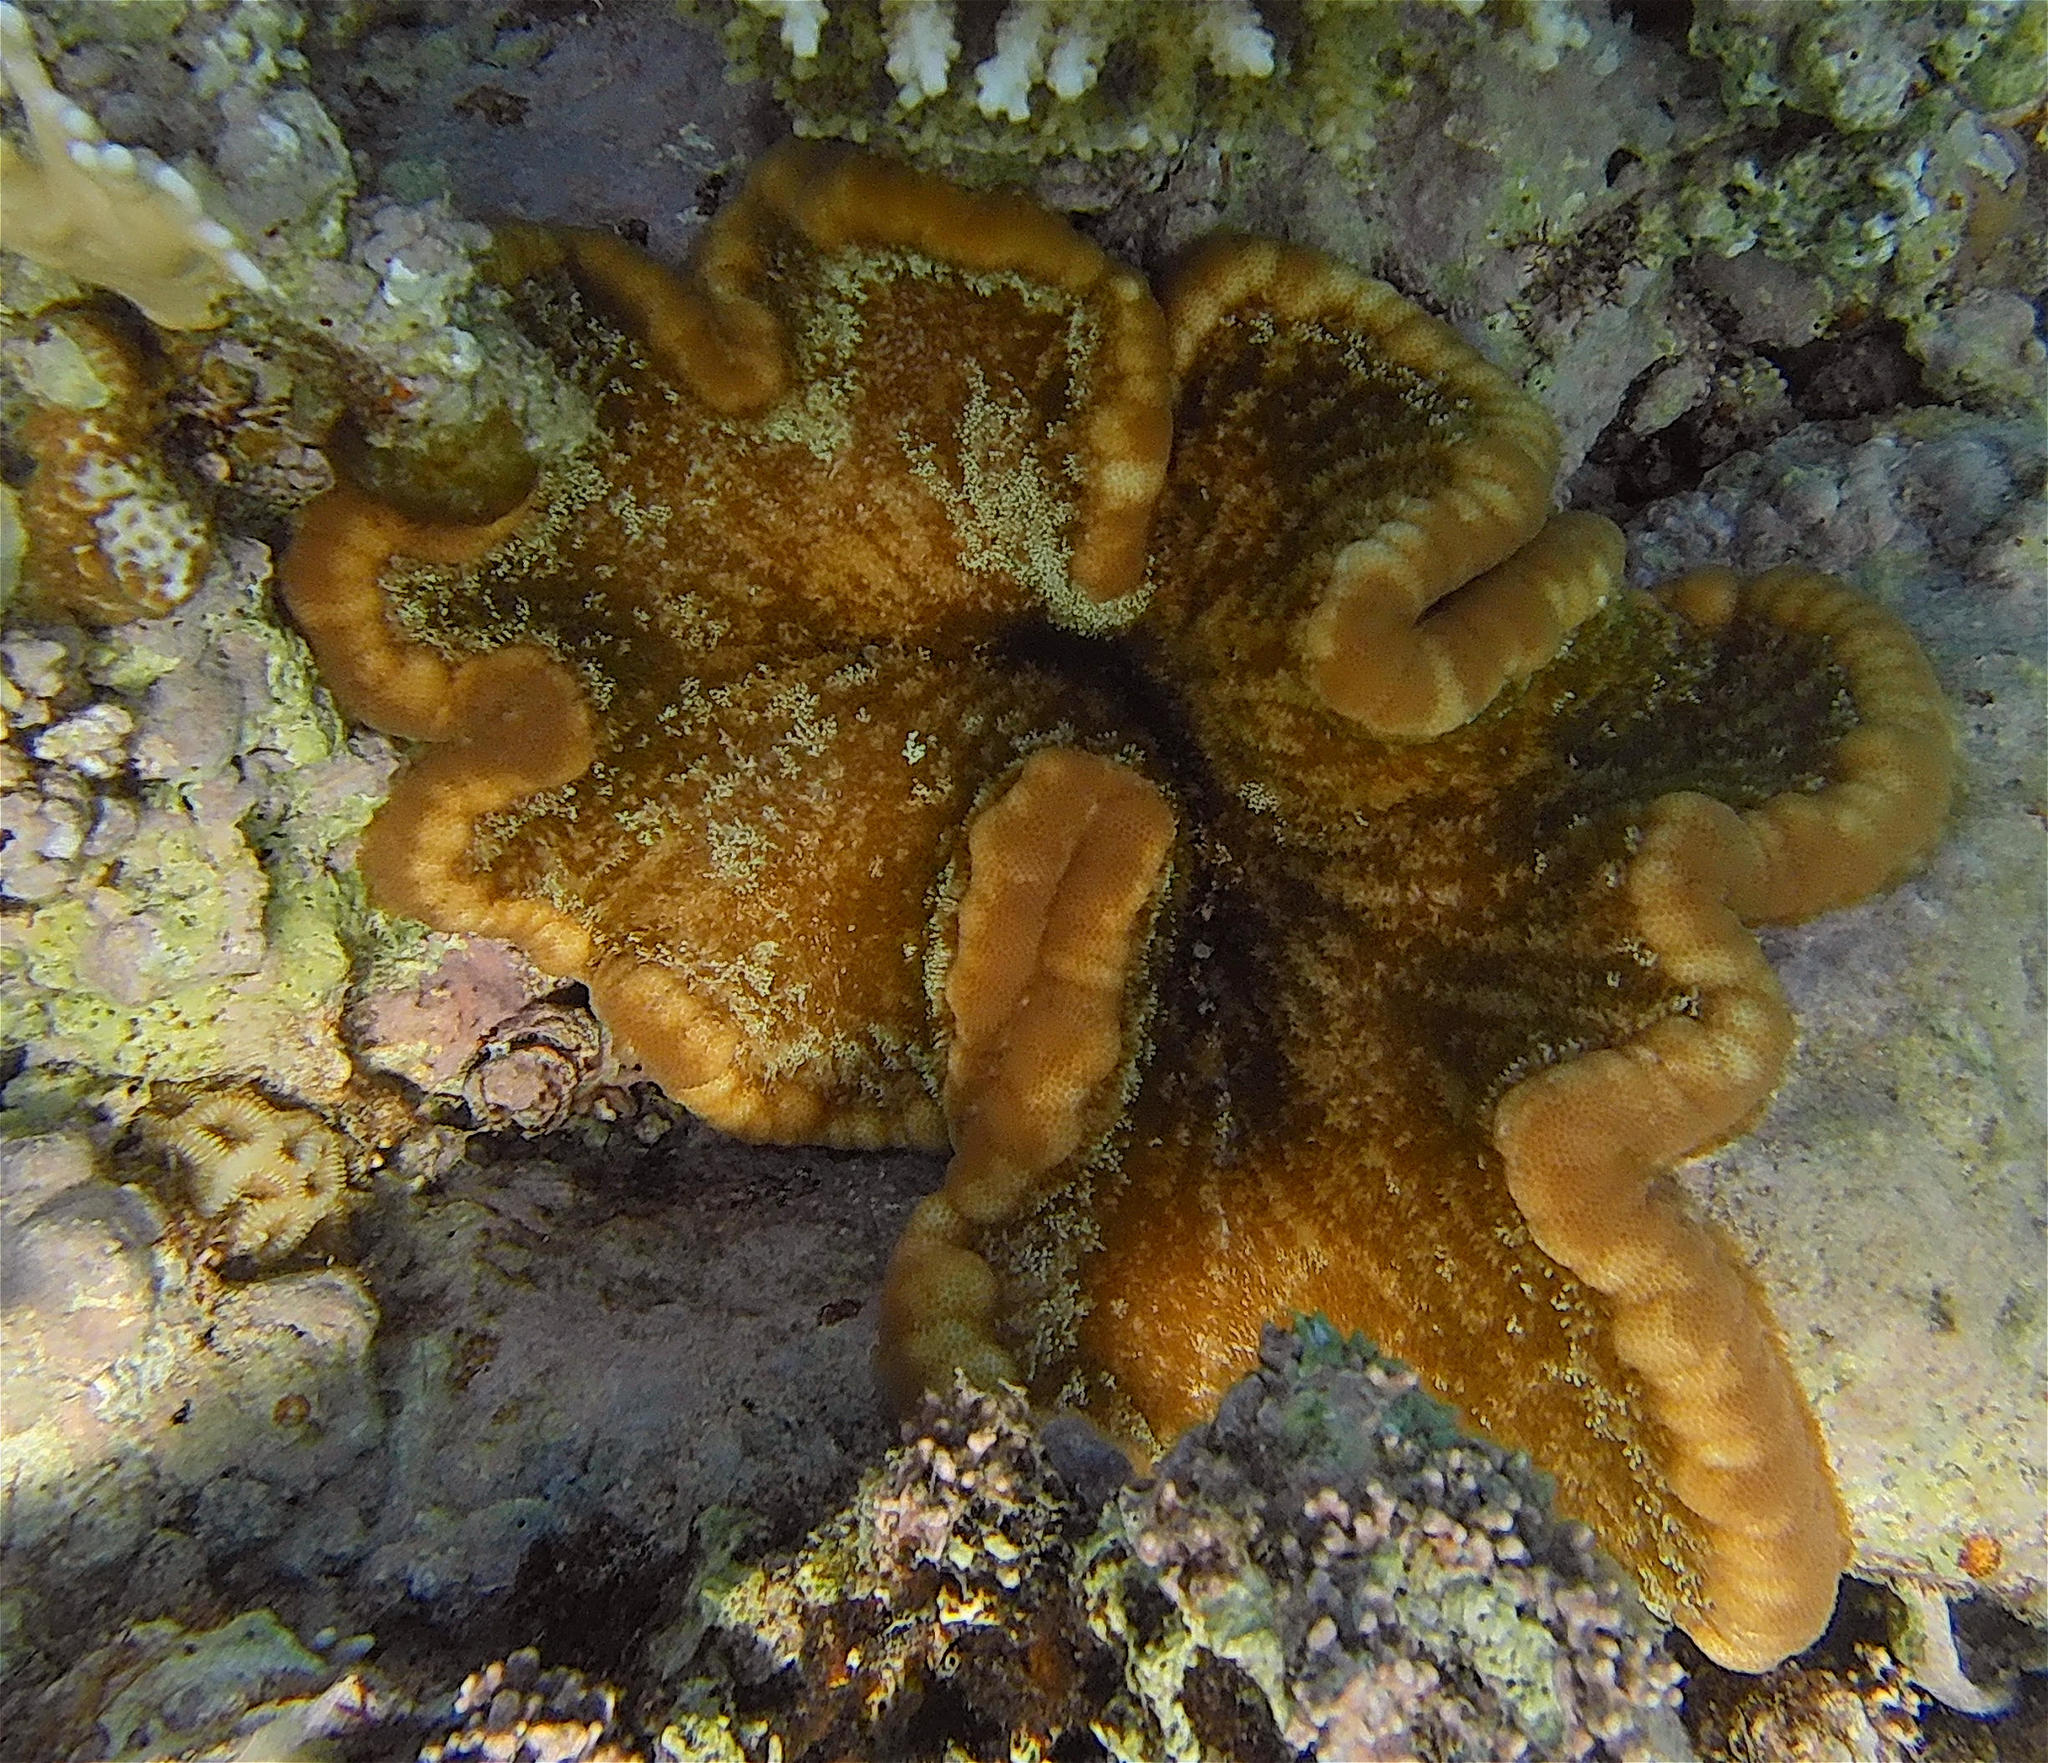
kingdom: Animalia
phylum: Cnidaria
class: Anthozoa
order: Actiniaria
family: Thalassianthidae
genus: Cryptodendrum
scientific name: Cryptodendrum adhaesivum
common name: Adhesive sea anemone
